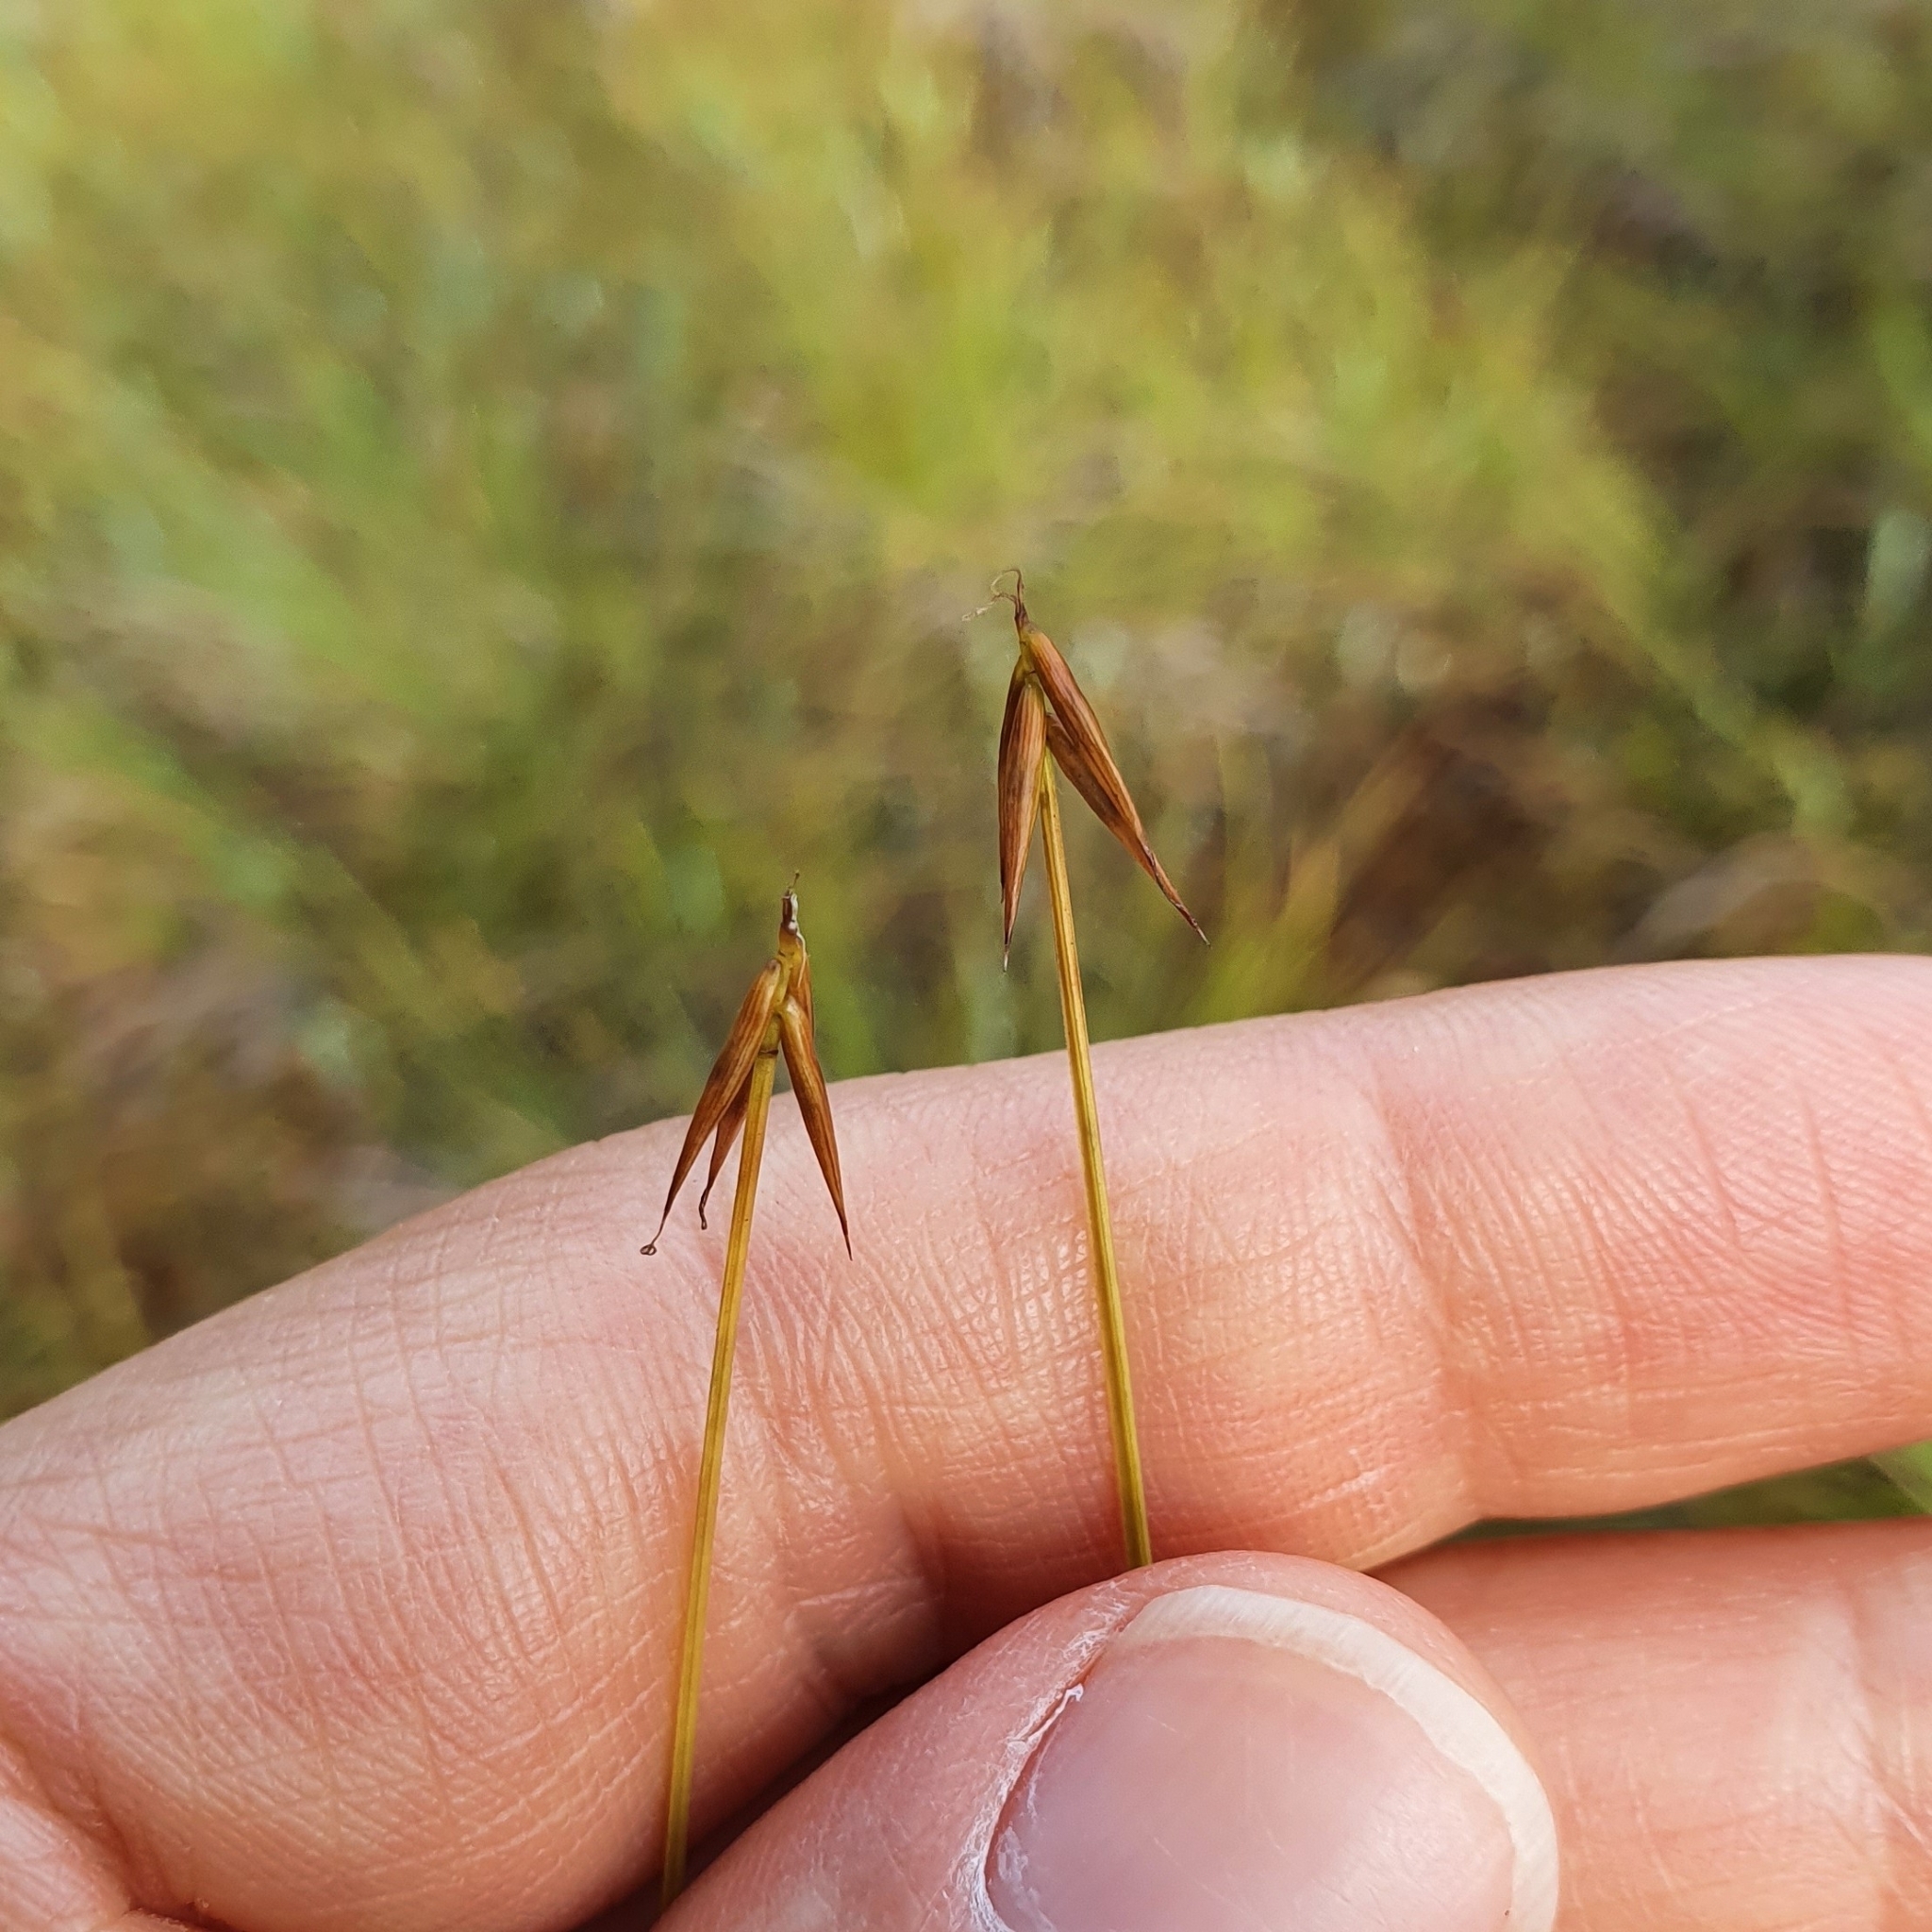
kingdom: Plantae
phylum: Tracheophyta
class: Liliopsida
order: Poales
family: Cyperaceae
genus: Carex
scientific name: Carex pauciflora
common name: Few-flowered sedge
